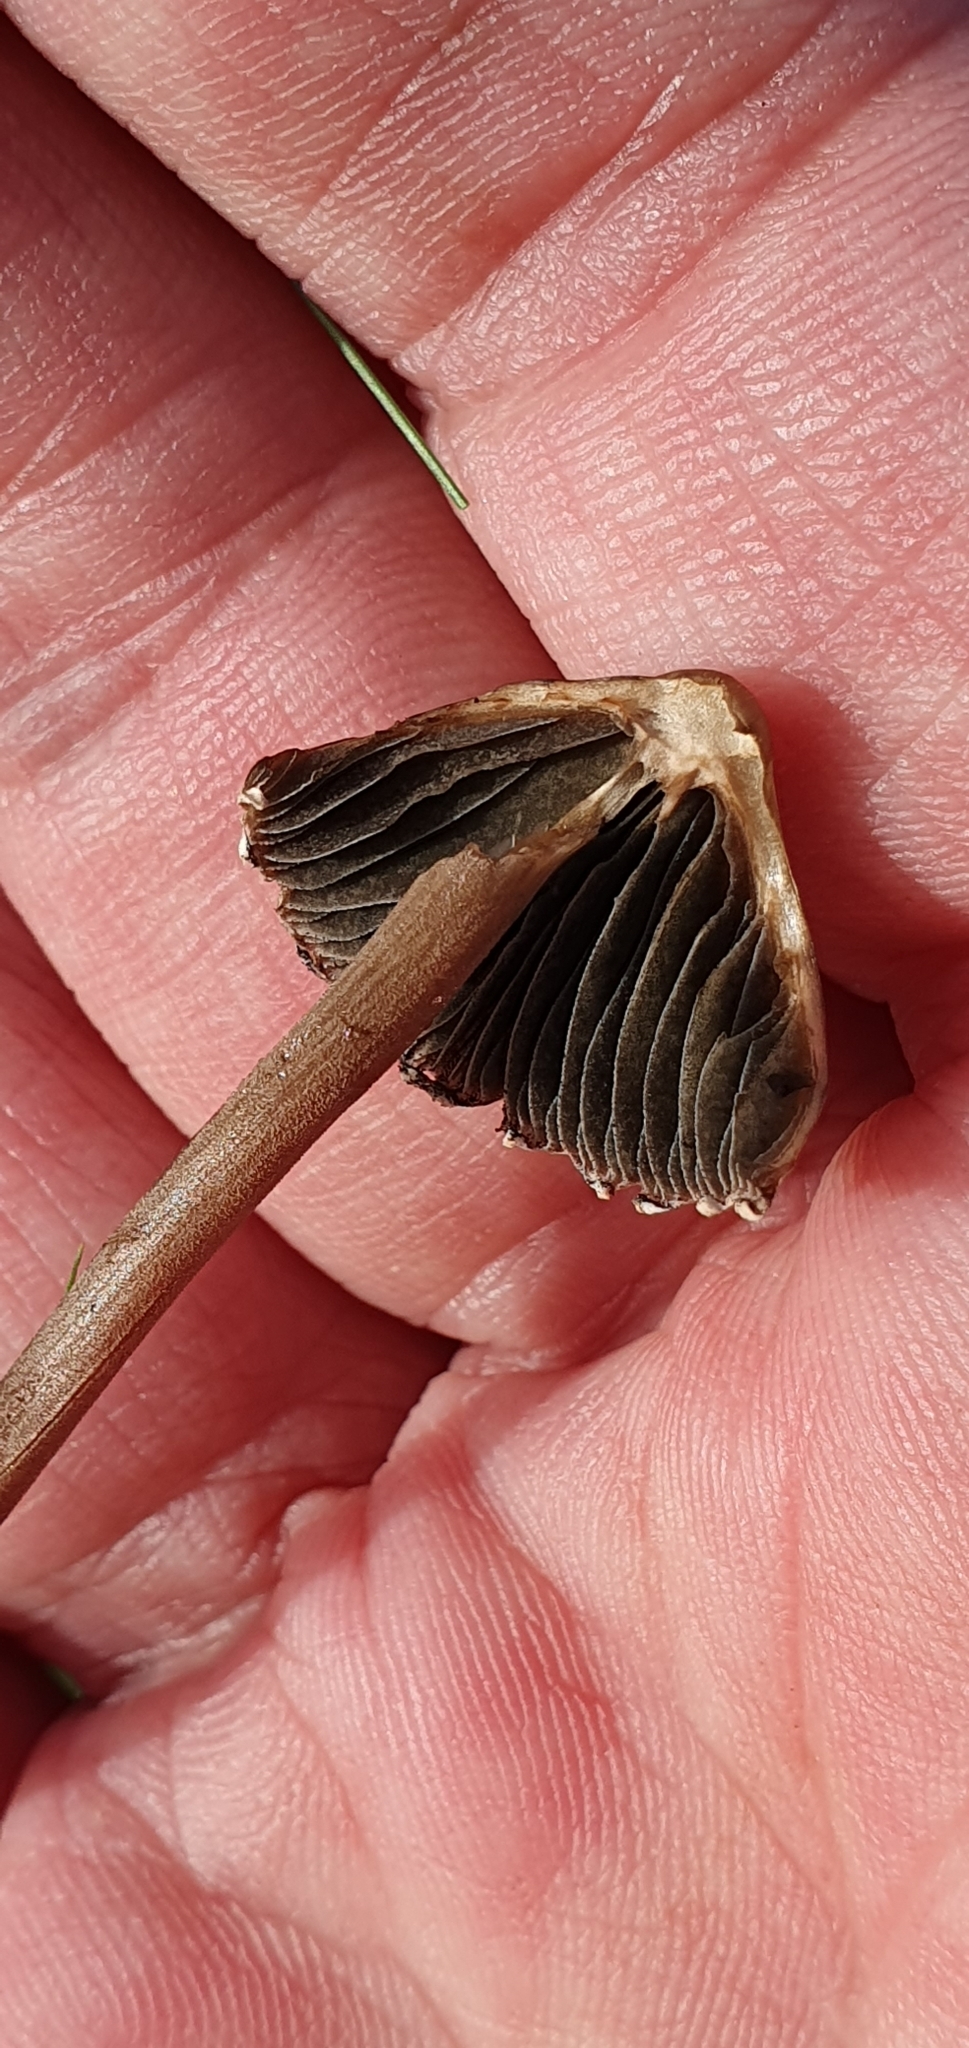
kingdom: Fungi
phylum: Basidiomycota
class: Agaricomycetes
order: Agaricales
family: Bolbitiaceae
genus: Panaeolus
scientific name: Panaeolus papilionaceus
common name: Petticoat mottlegill
